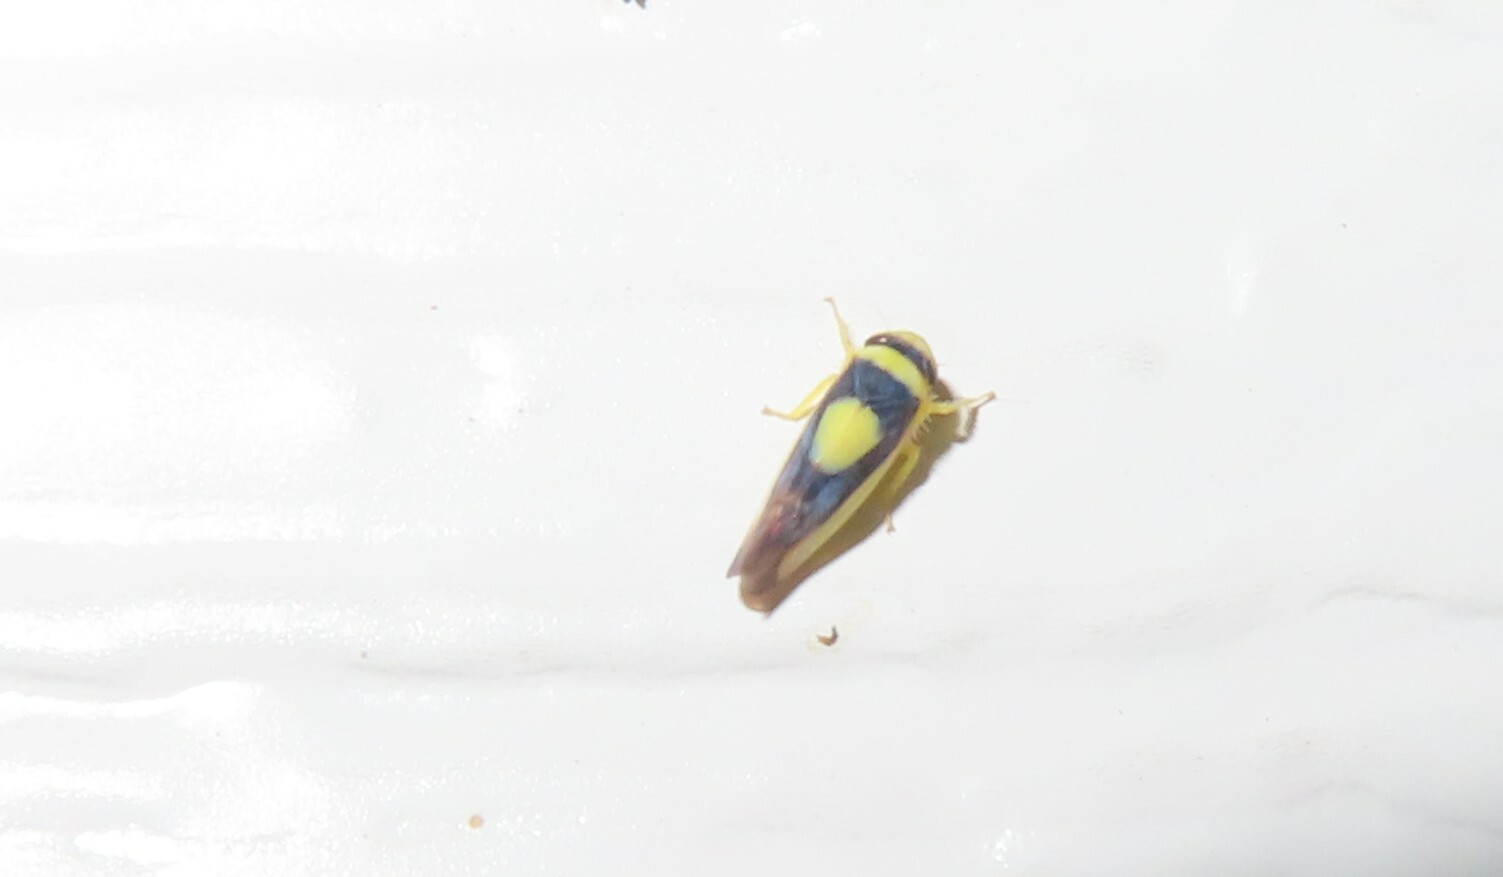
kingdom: Animalia
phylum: Arthropoda
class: Insecta
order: Hemiptera
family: Cicadellidae
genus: Colladonus
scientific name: Colladonus clitellarius
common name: The saddleback leafhopper
